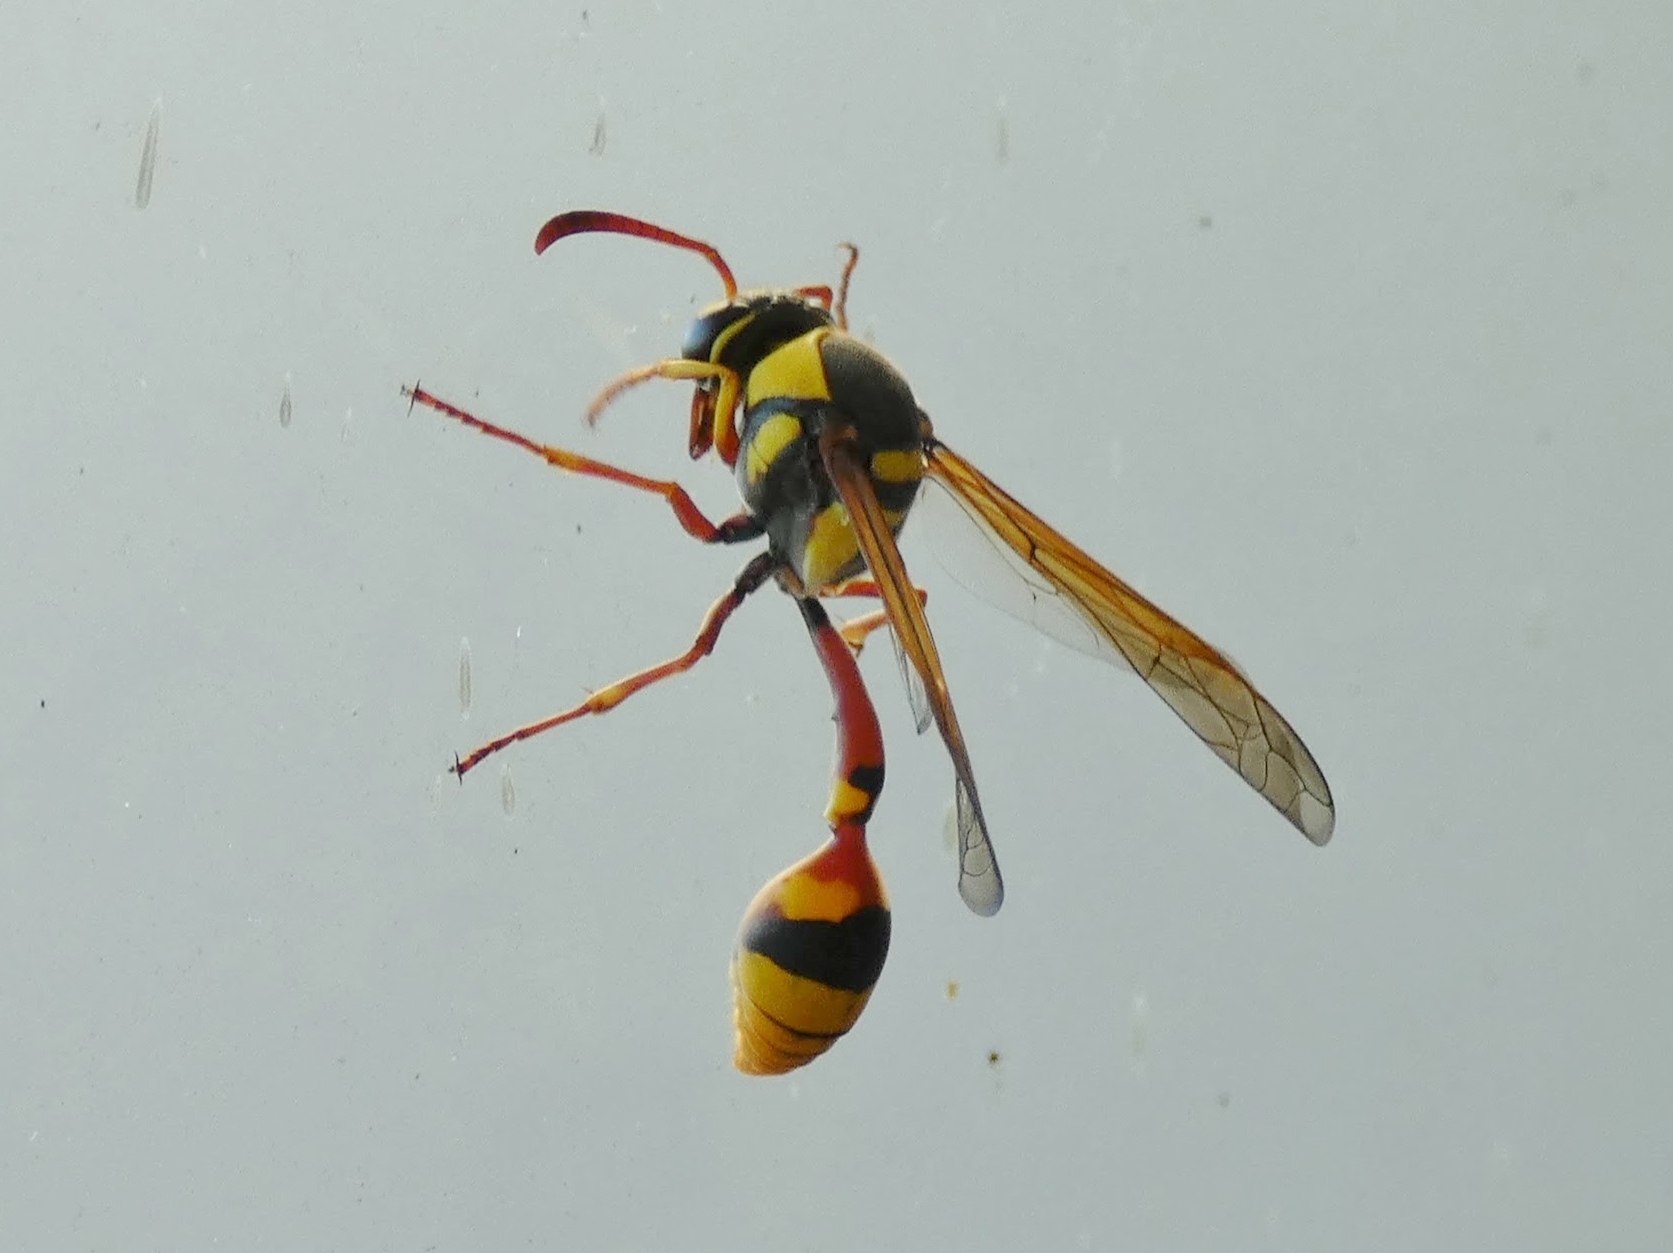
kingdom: Animalia
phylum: Arthropoda
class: Insecta
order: Hymenoptera
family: Eumenidae
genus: Delta
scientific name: Delta campaniforme
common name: Yellow and black potter wasp
